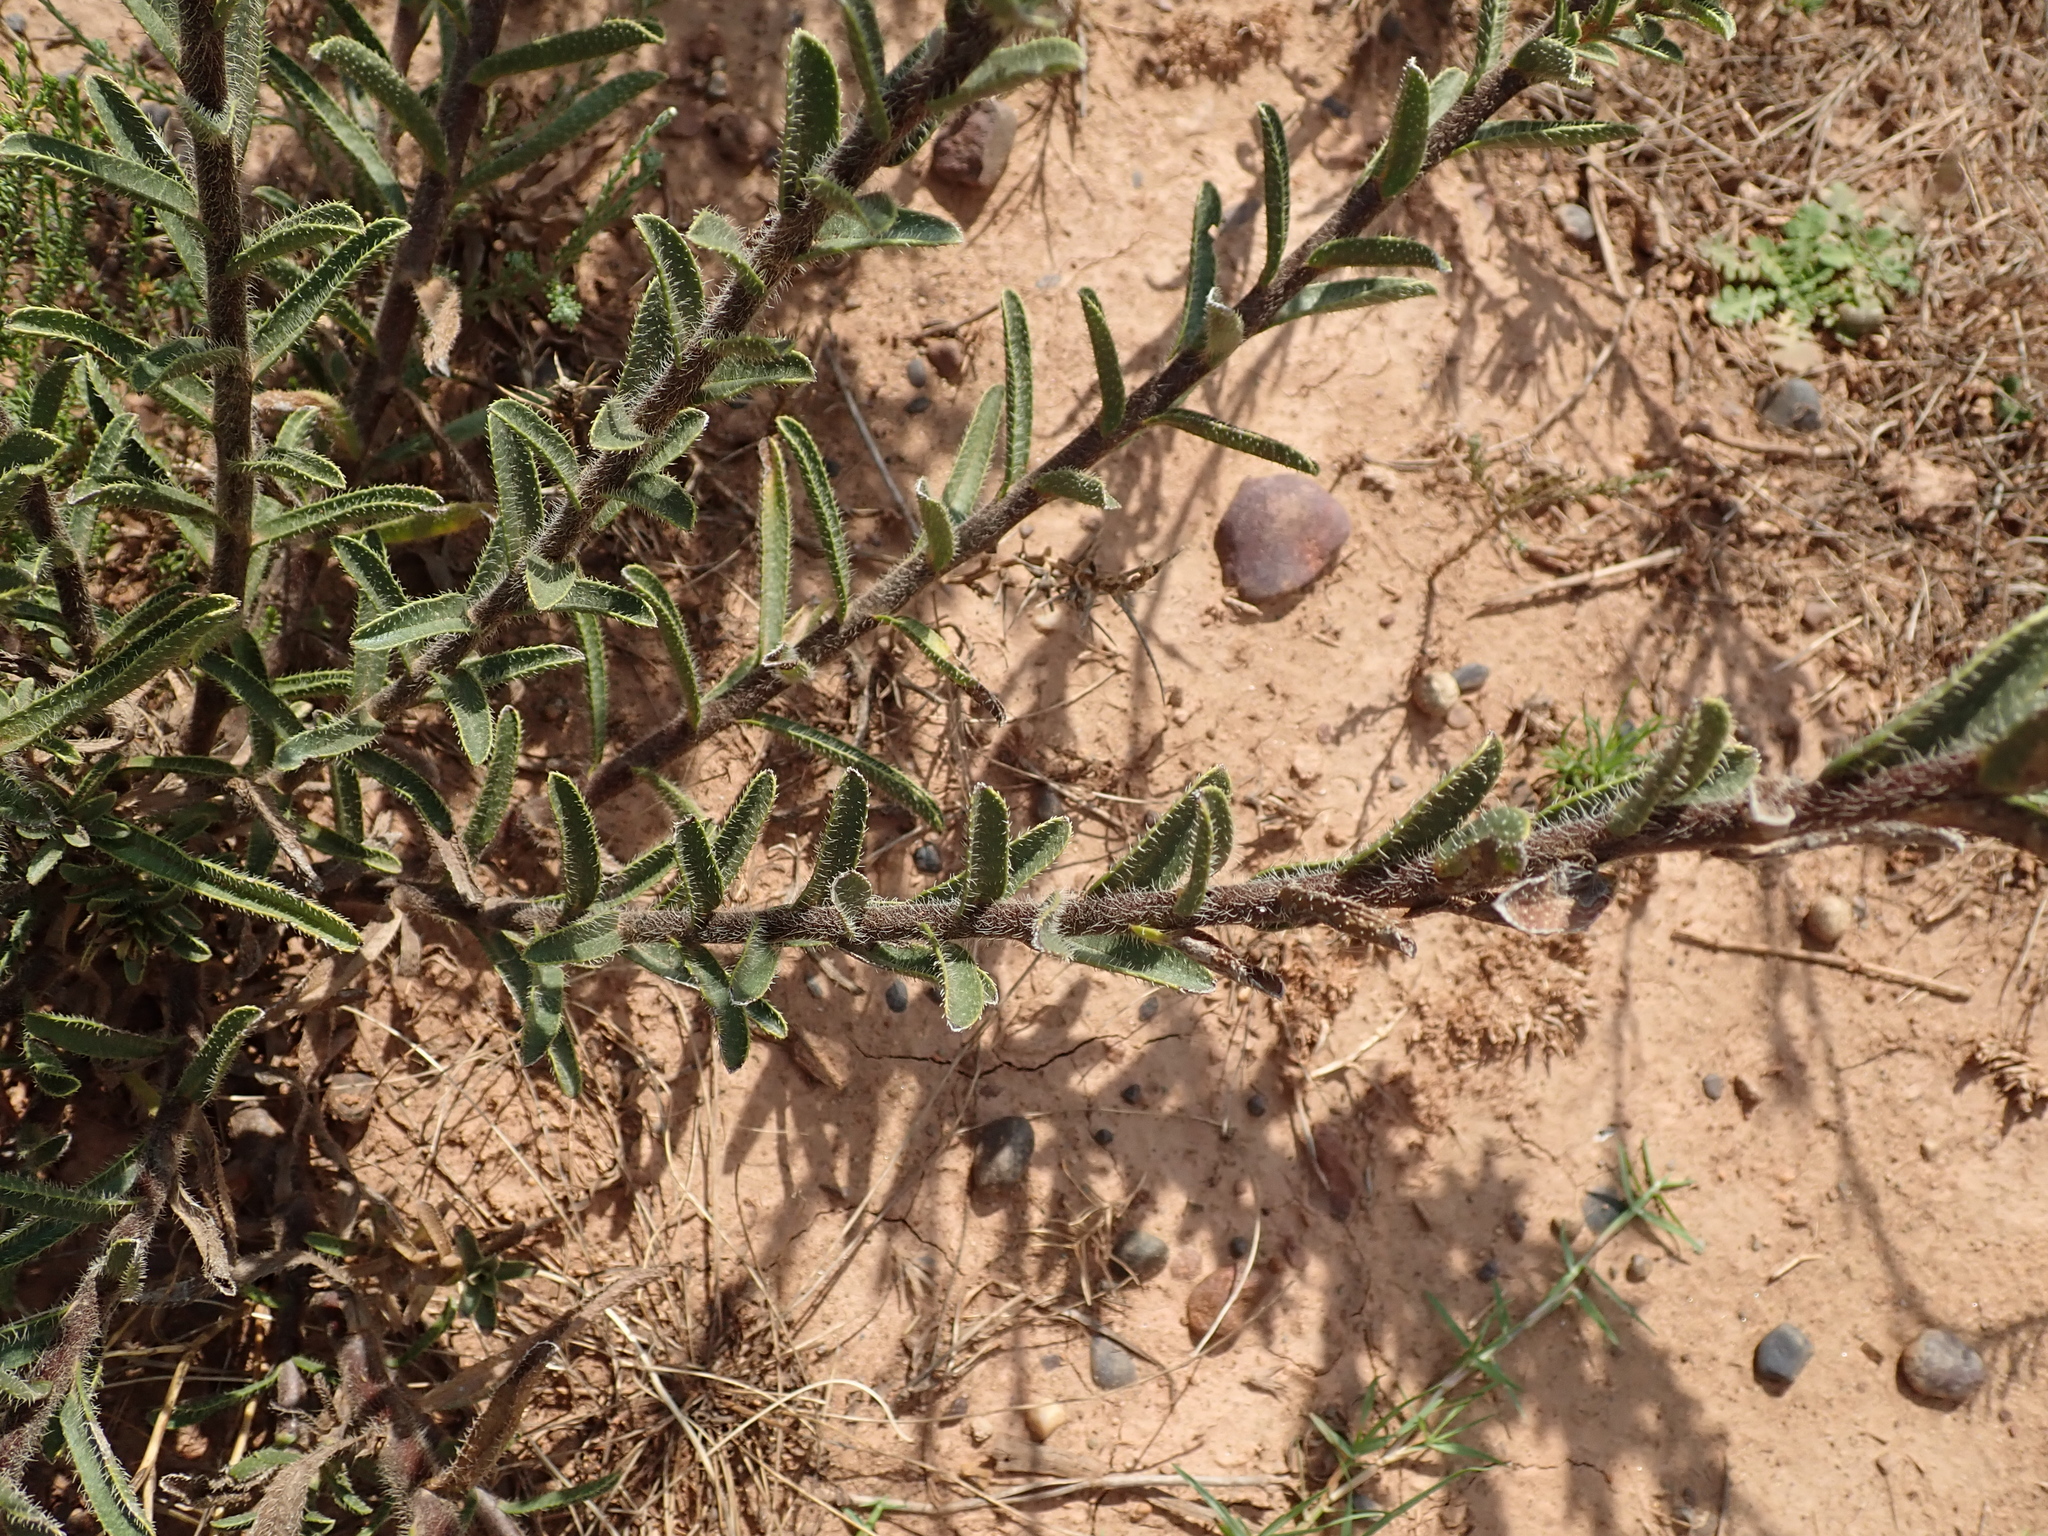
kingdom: Plantae
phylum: Tracheophyta
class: Magnoliopsida
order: Boraginales
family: Boraginaceae
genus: Lobostemon
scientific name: Lobostemon trigonus
